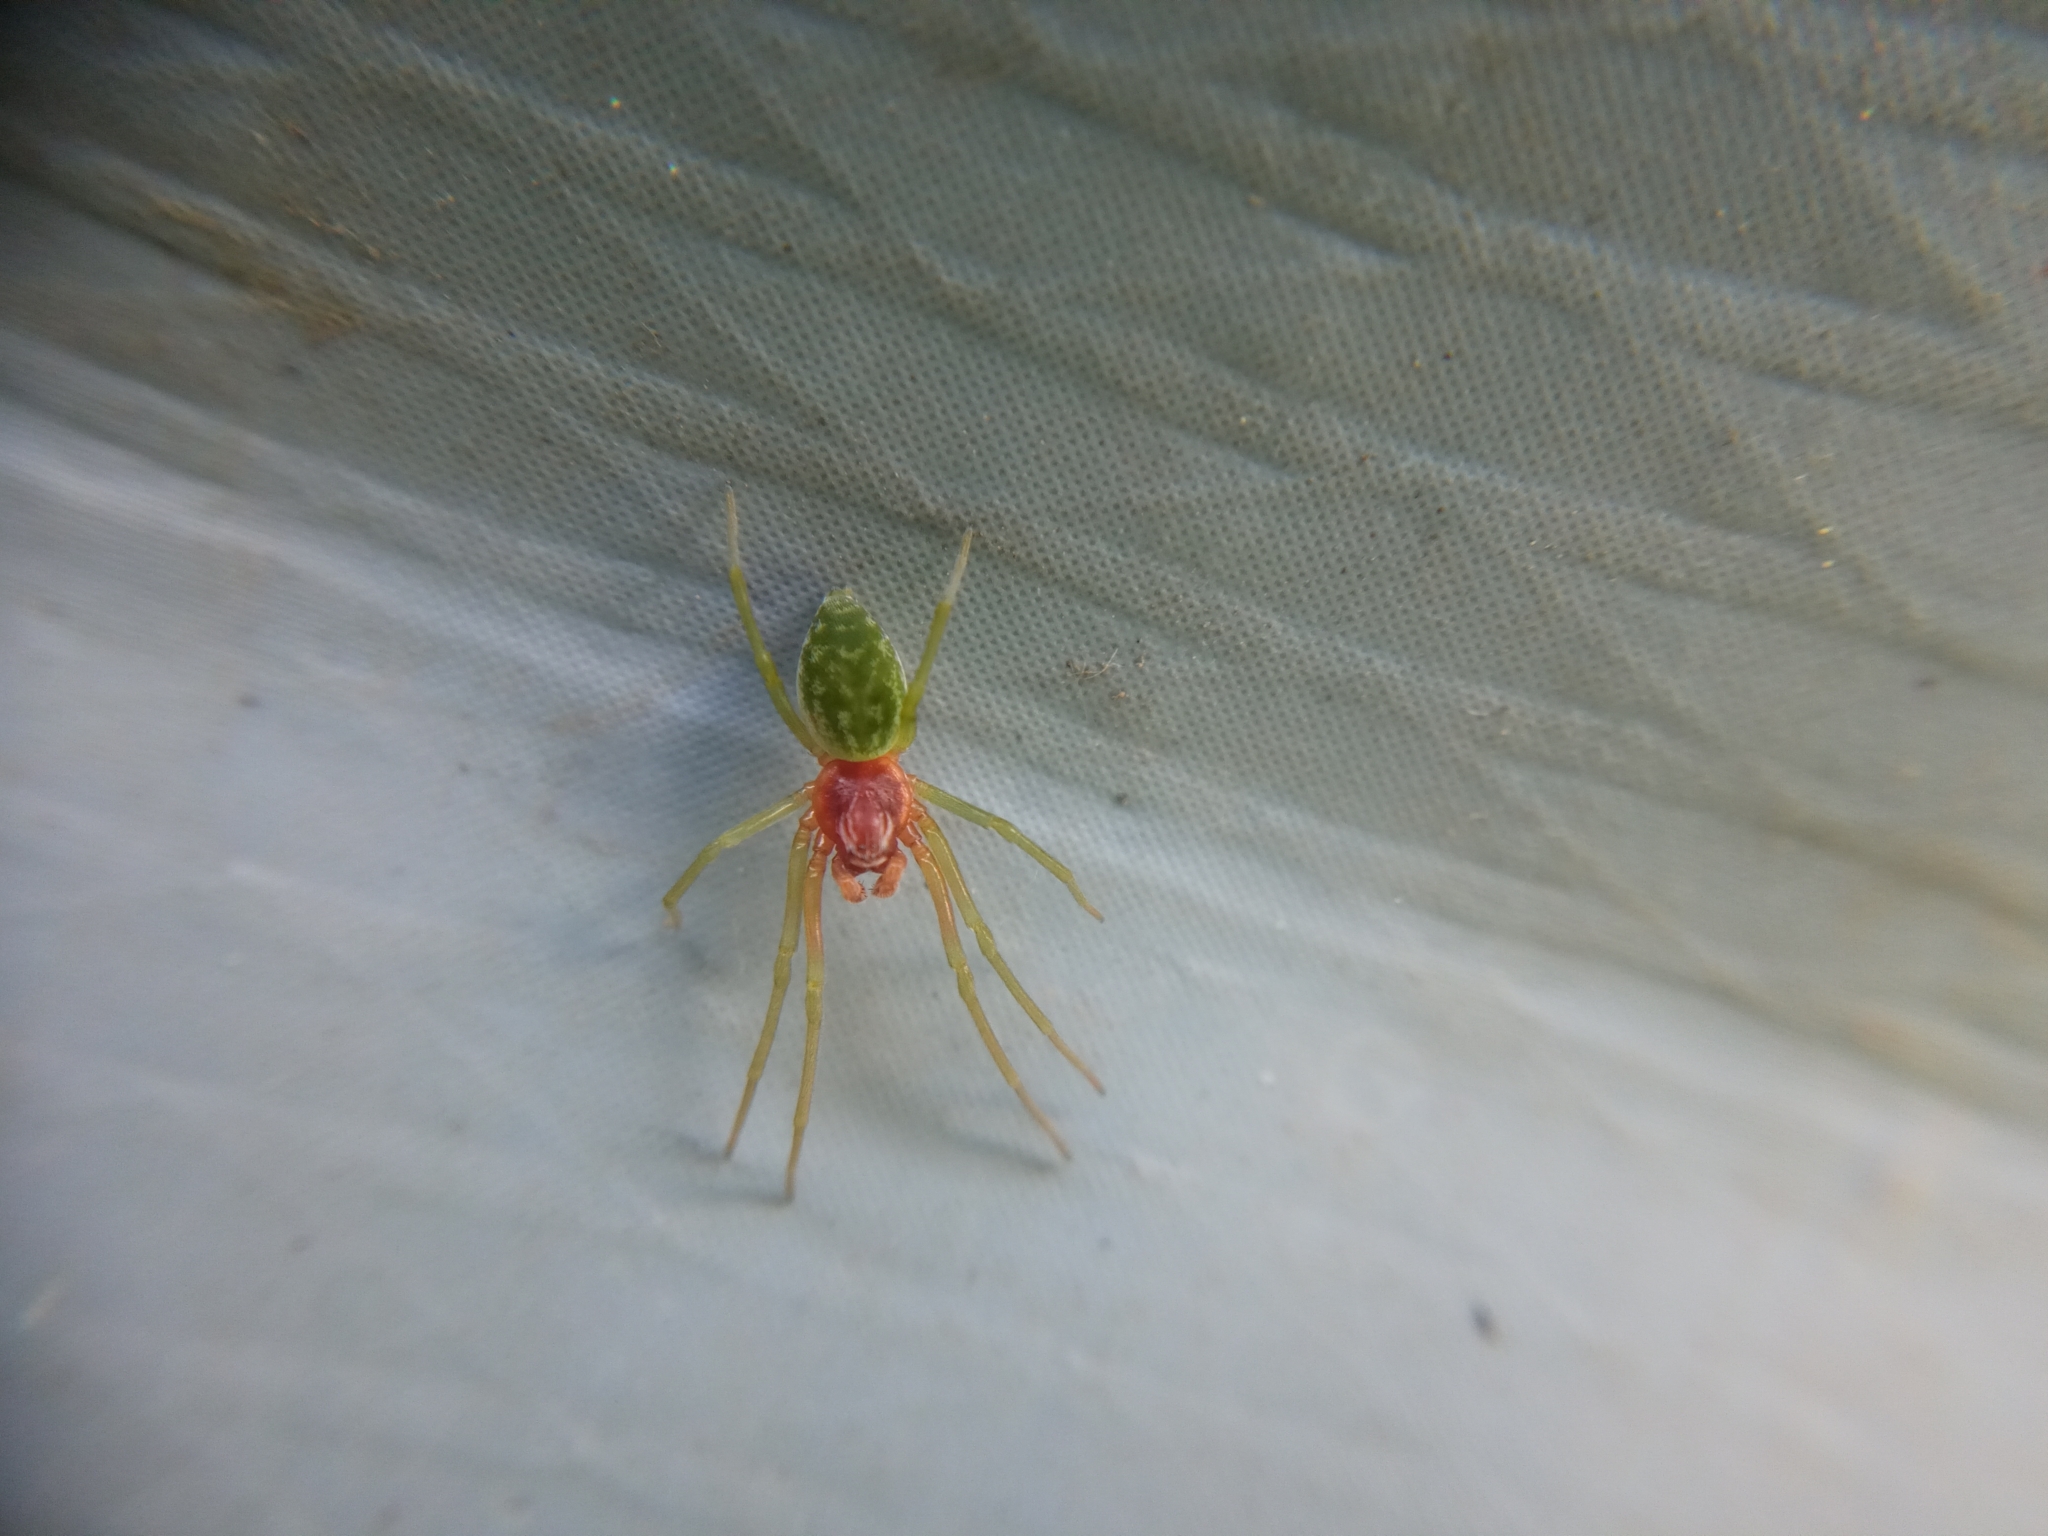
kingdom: Animalia
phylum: Arthropoda
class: Arachnida
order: Araneae
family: Dictynidae
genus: Nigma
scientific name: Nigma walckenaeri
